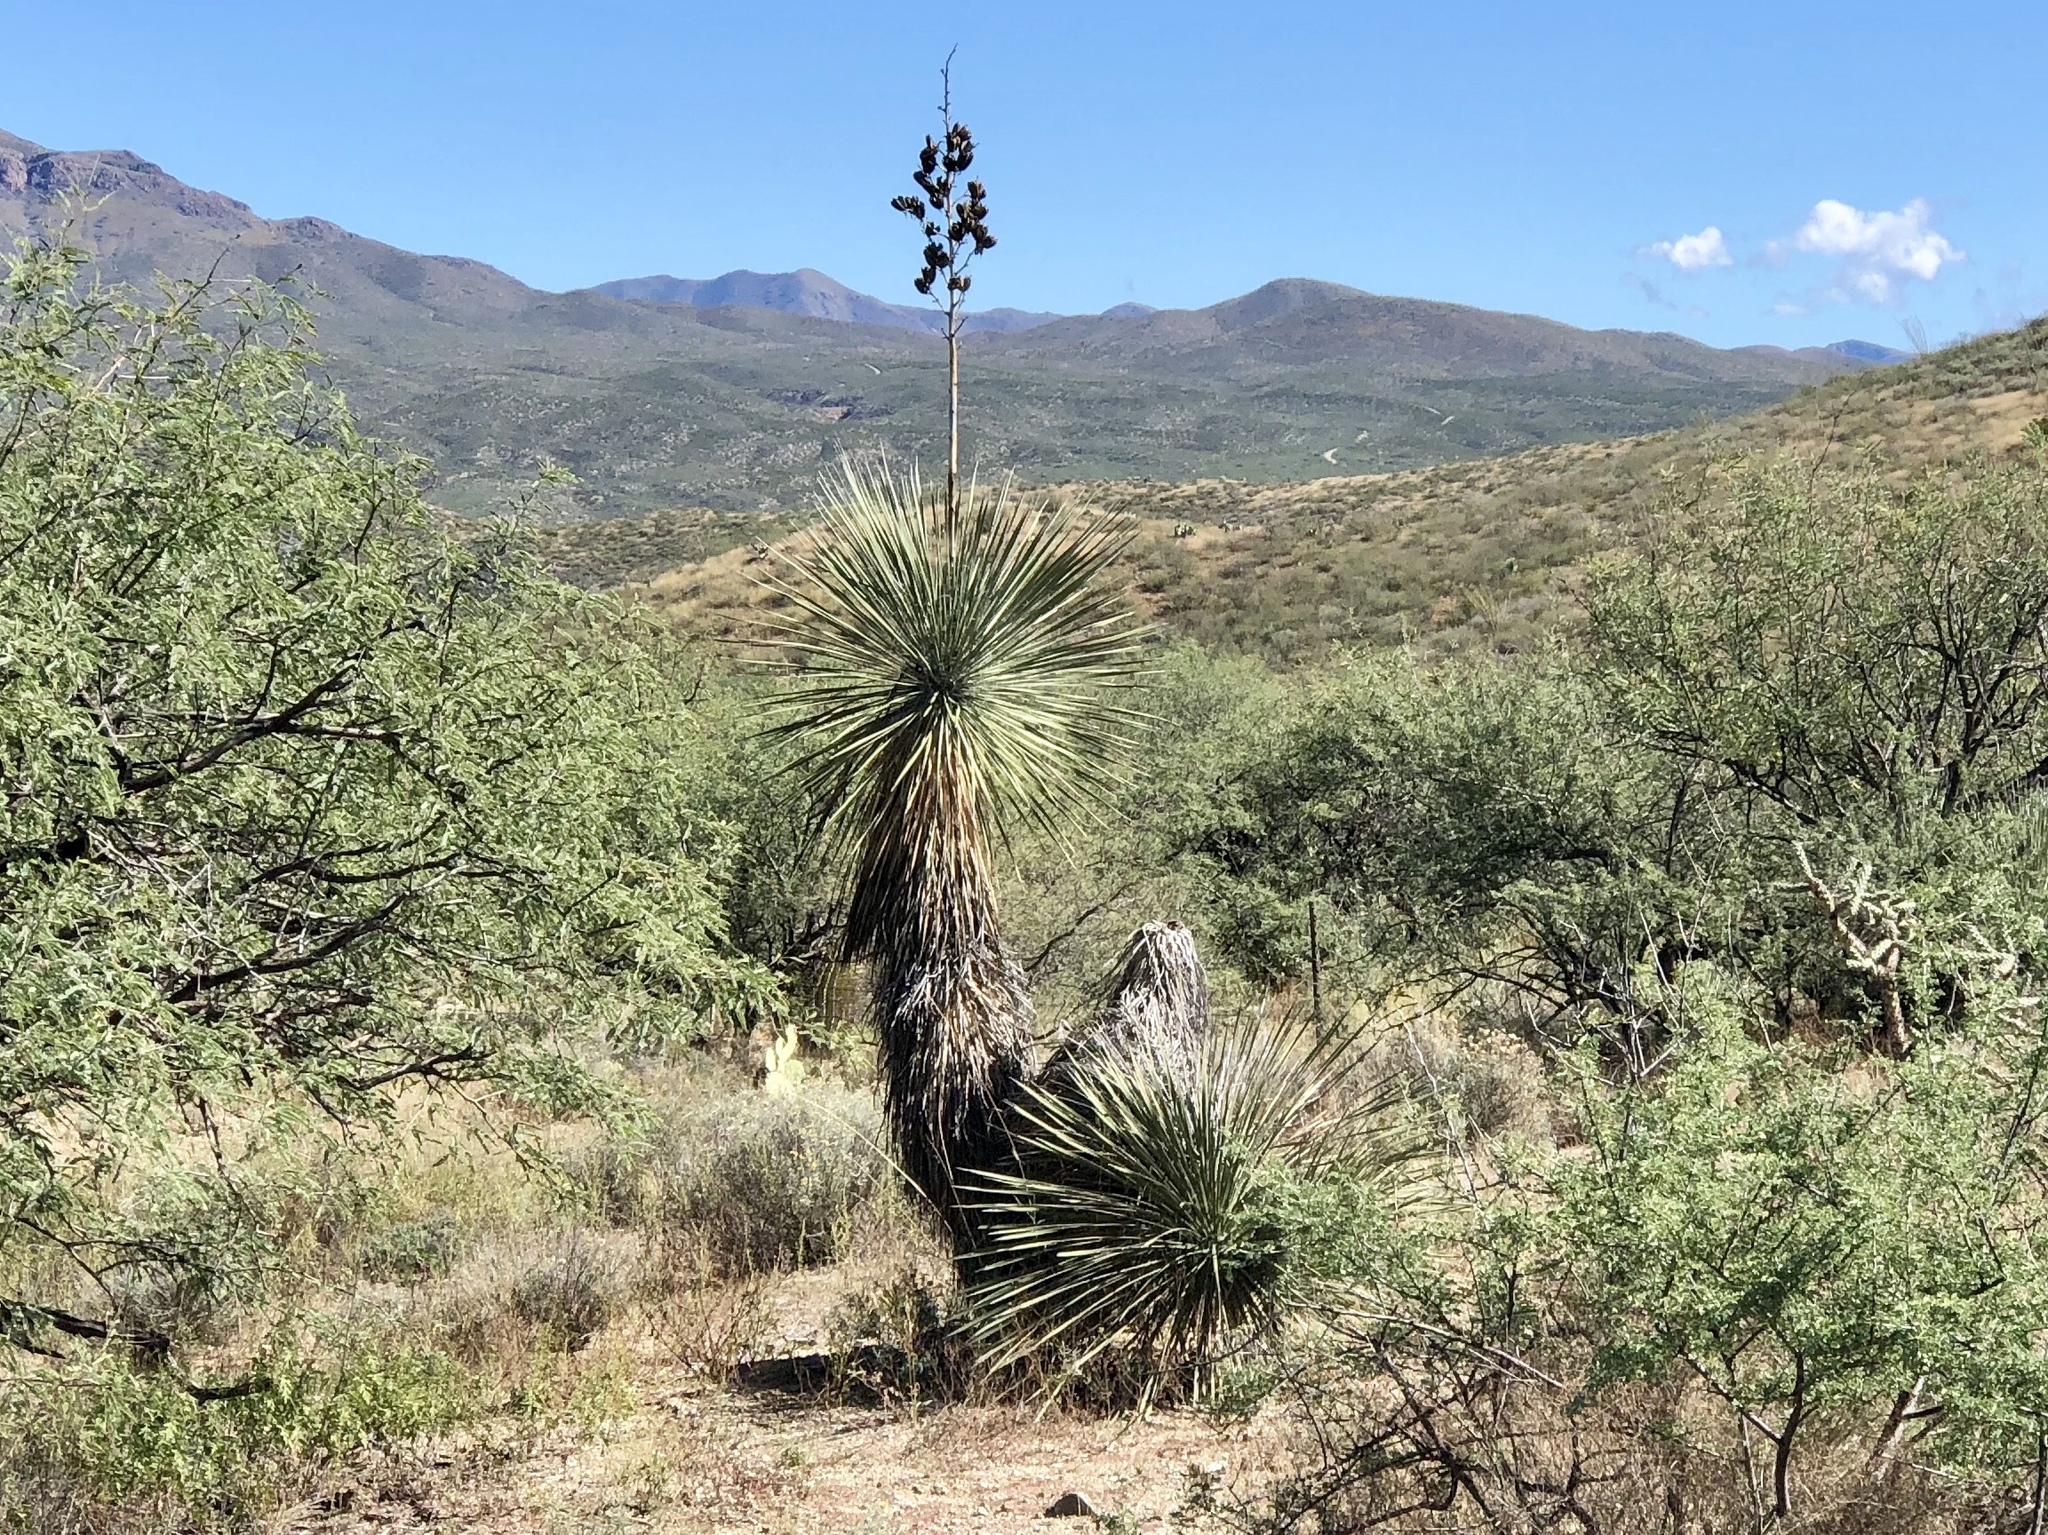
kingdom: Plantae
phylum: Tracheophyta
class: Liliopsida
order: Asparagales
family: Asparagaceae
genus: Yucca
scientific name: Yucca elata
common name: Palmella
